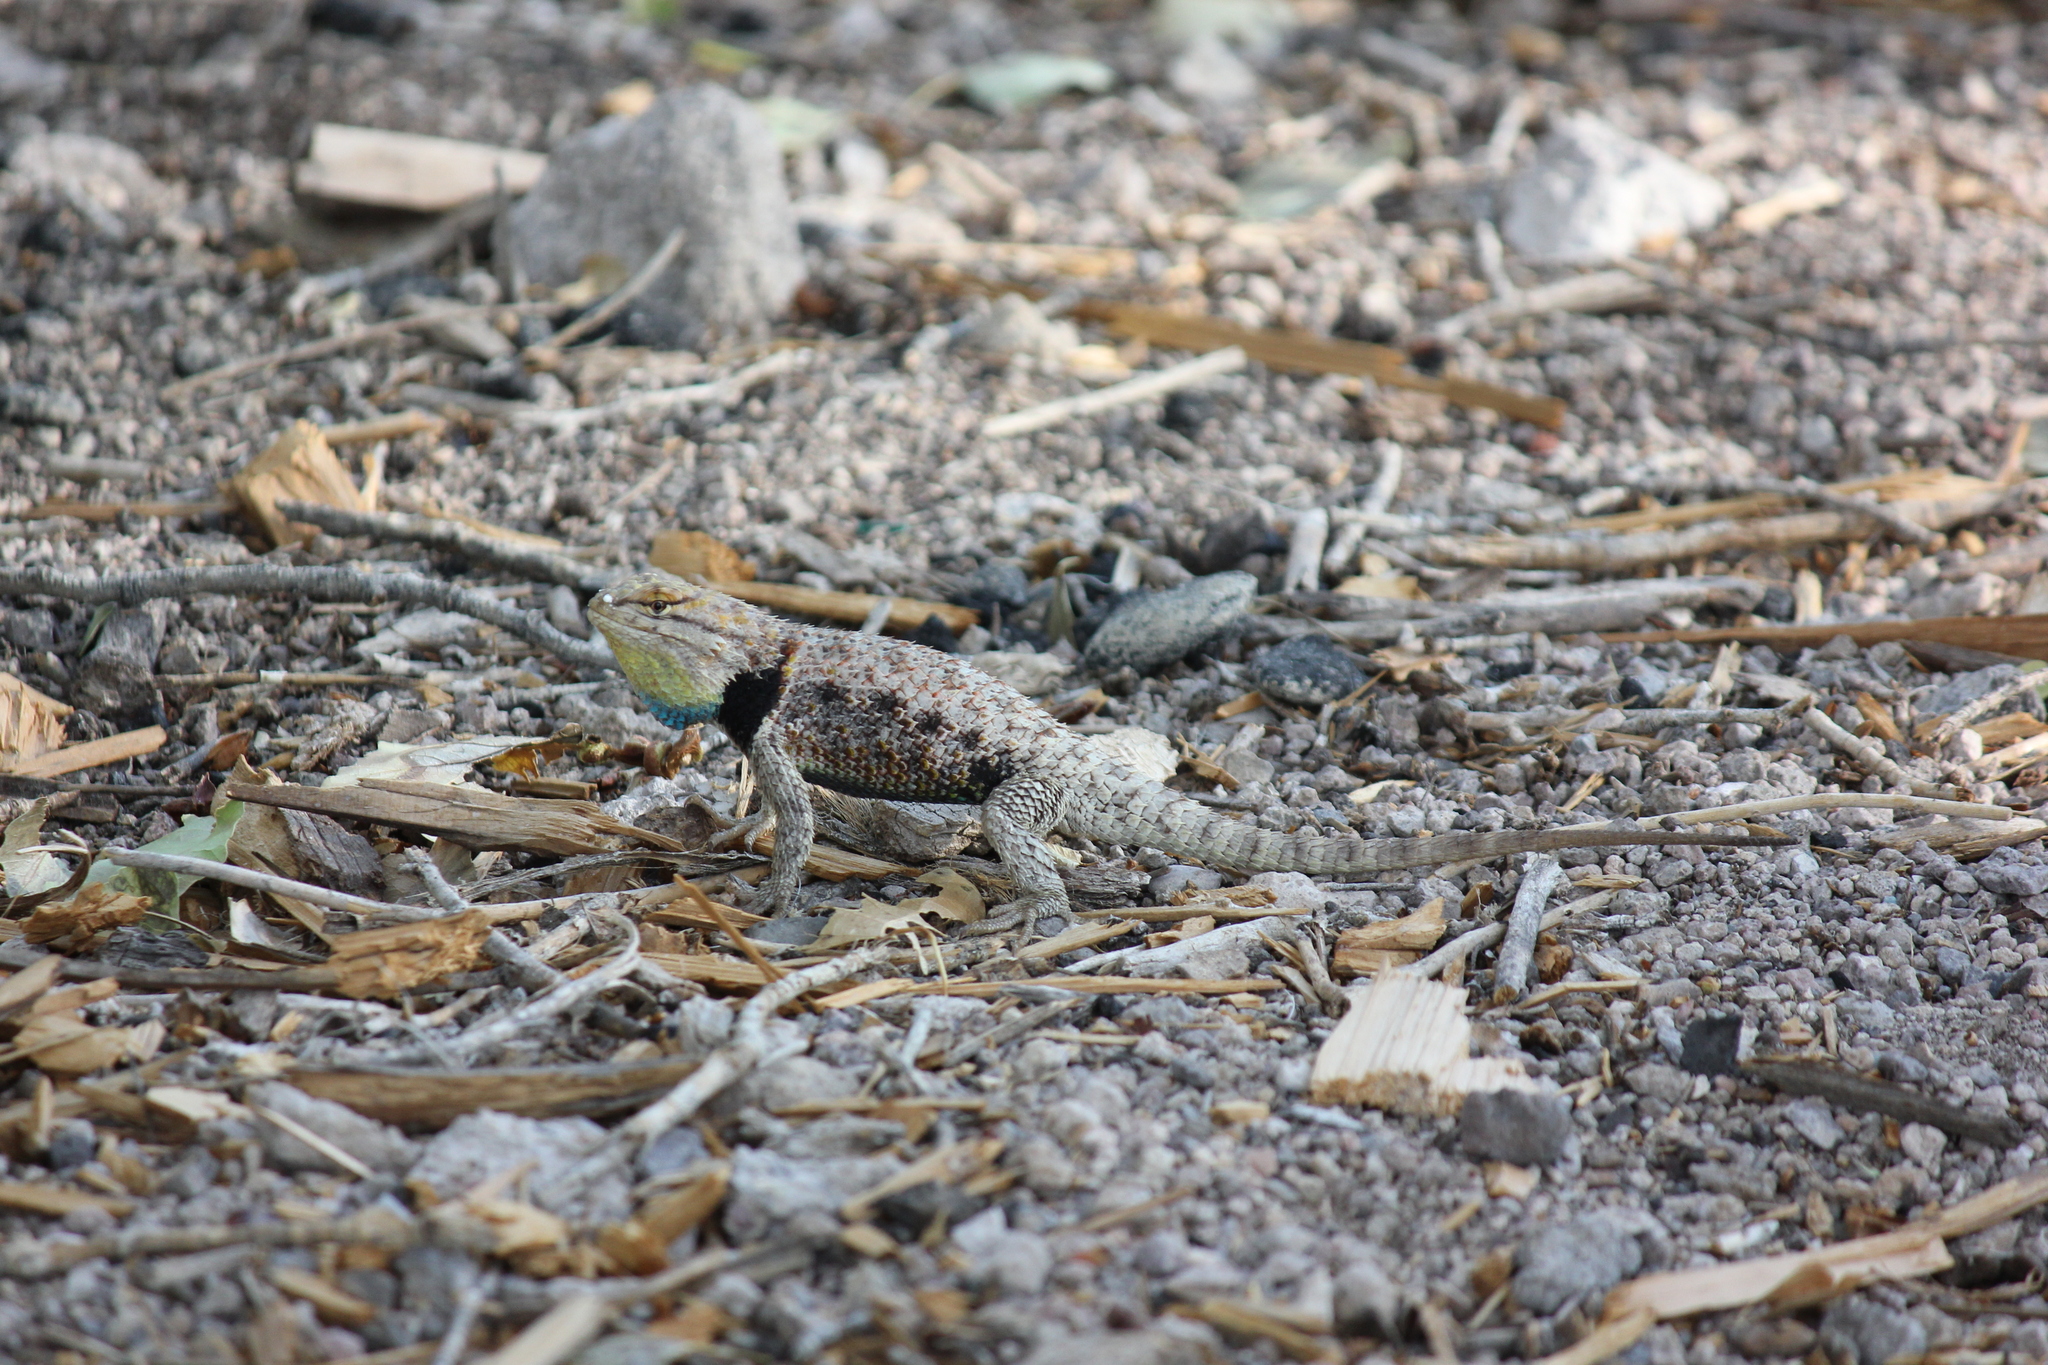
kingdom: Animalia
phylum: Chordata
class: Squamata
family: Phrynosomatidae
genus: Sceloporus
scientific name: Sceloporus uniformis
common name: Yellow-backed spiny lizard
